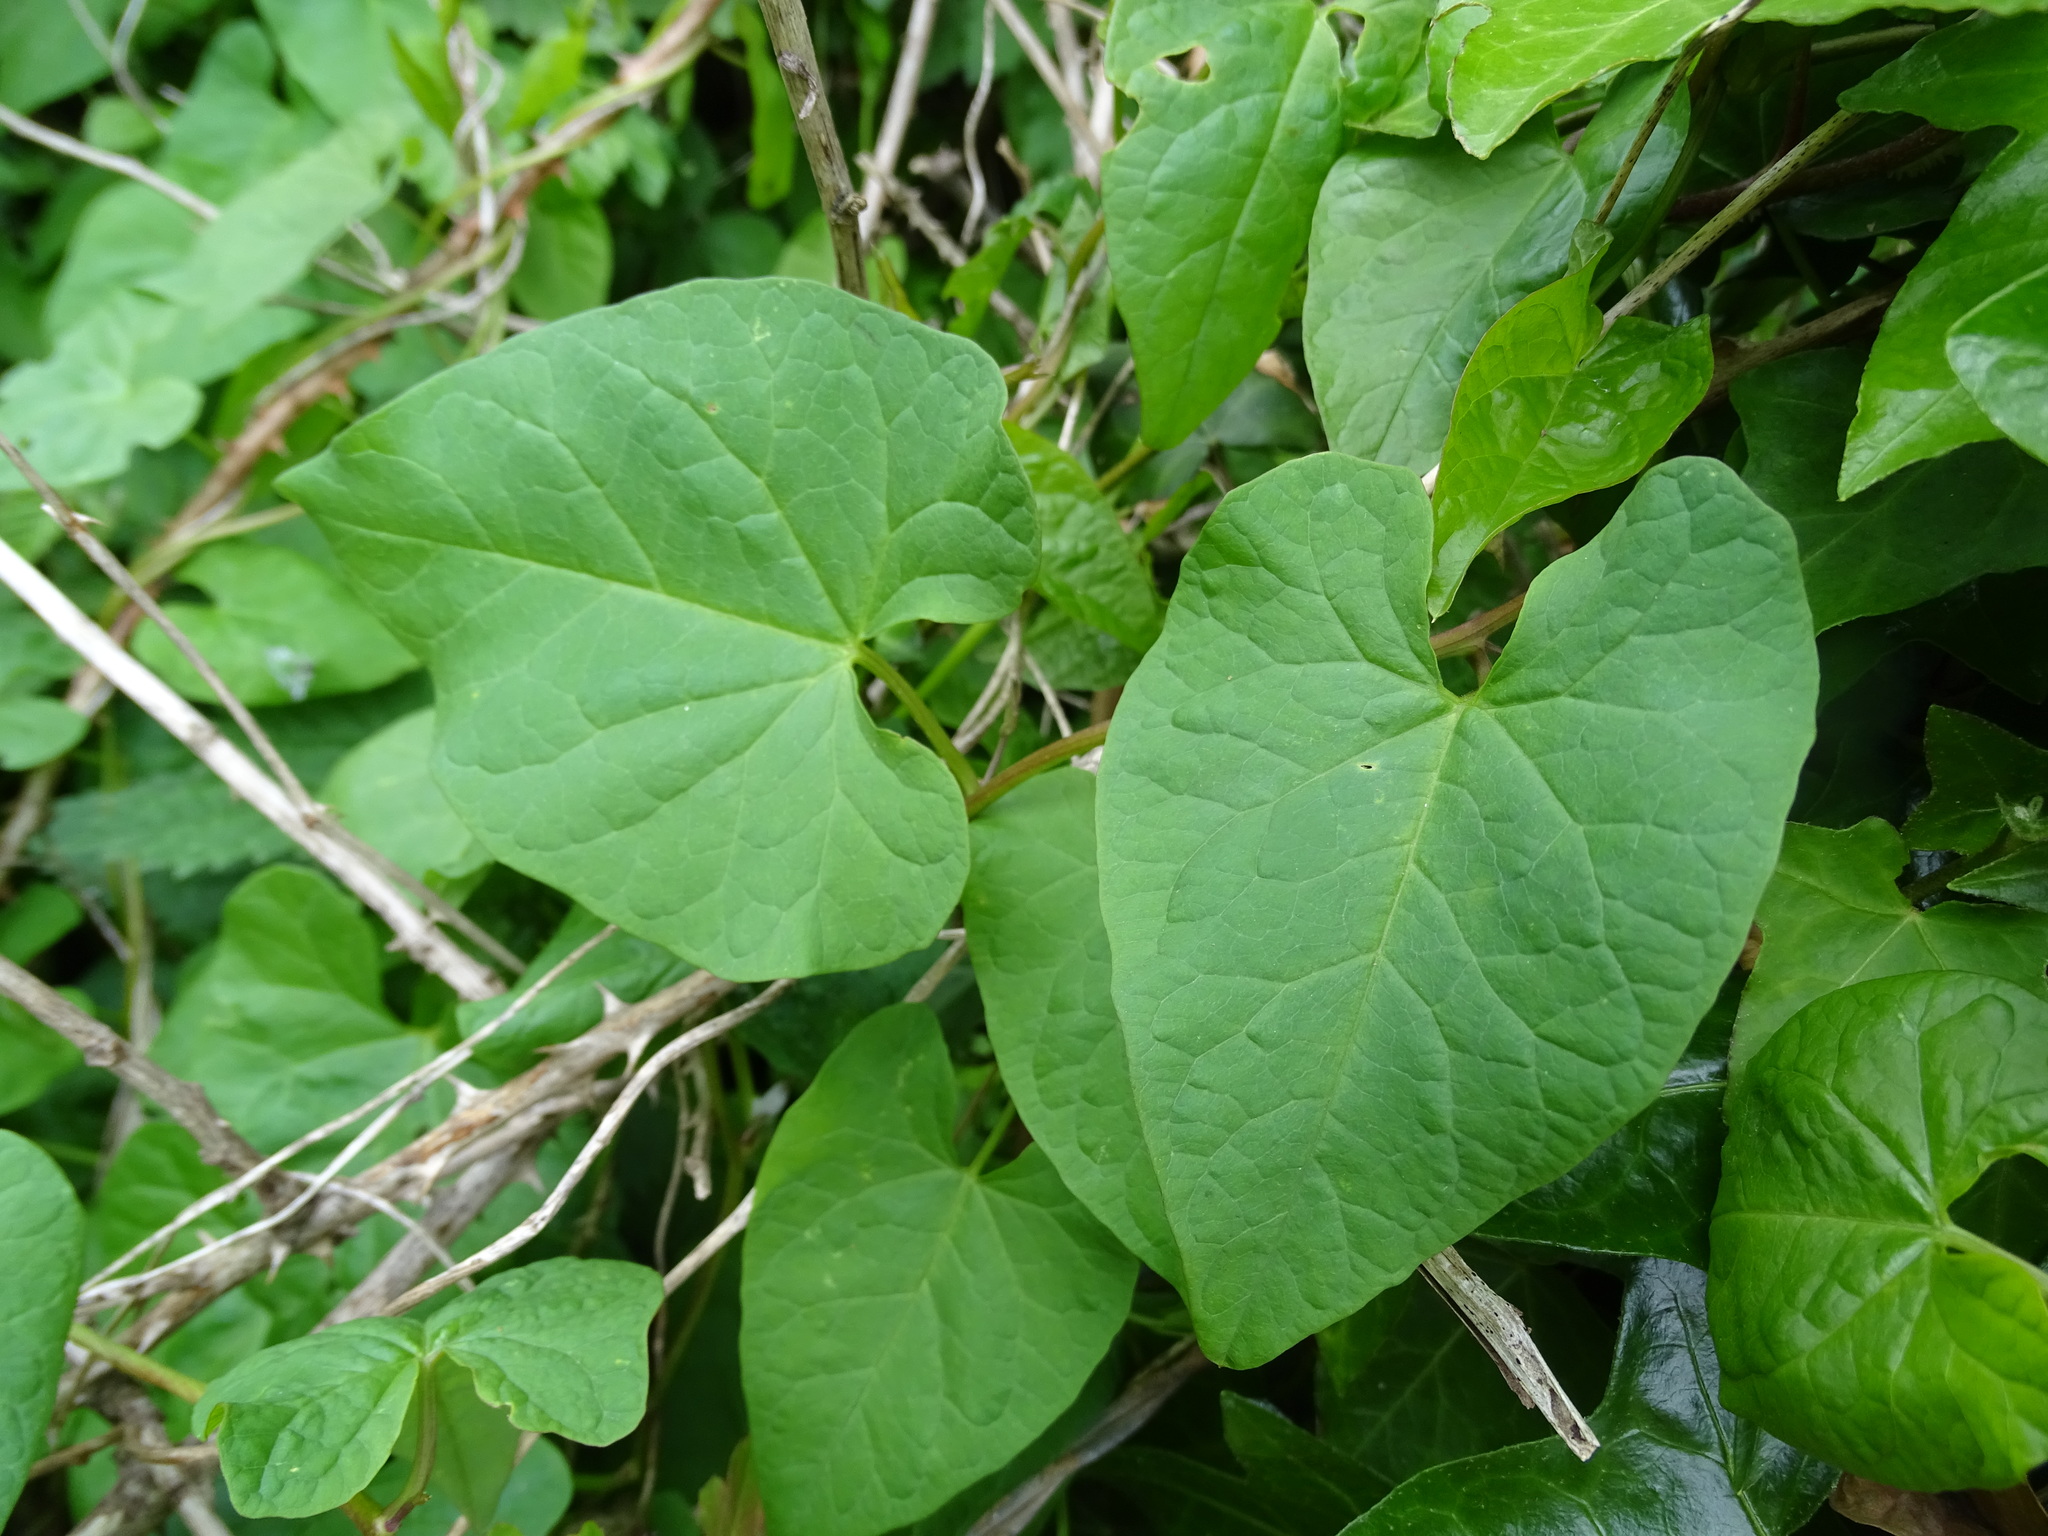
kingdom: Plantae
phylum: Tracheophyta
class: Magnoliopsida
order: Solanales
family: Convolvulaceae
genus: Calystegia
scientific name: Calystegia
